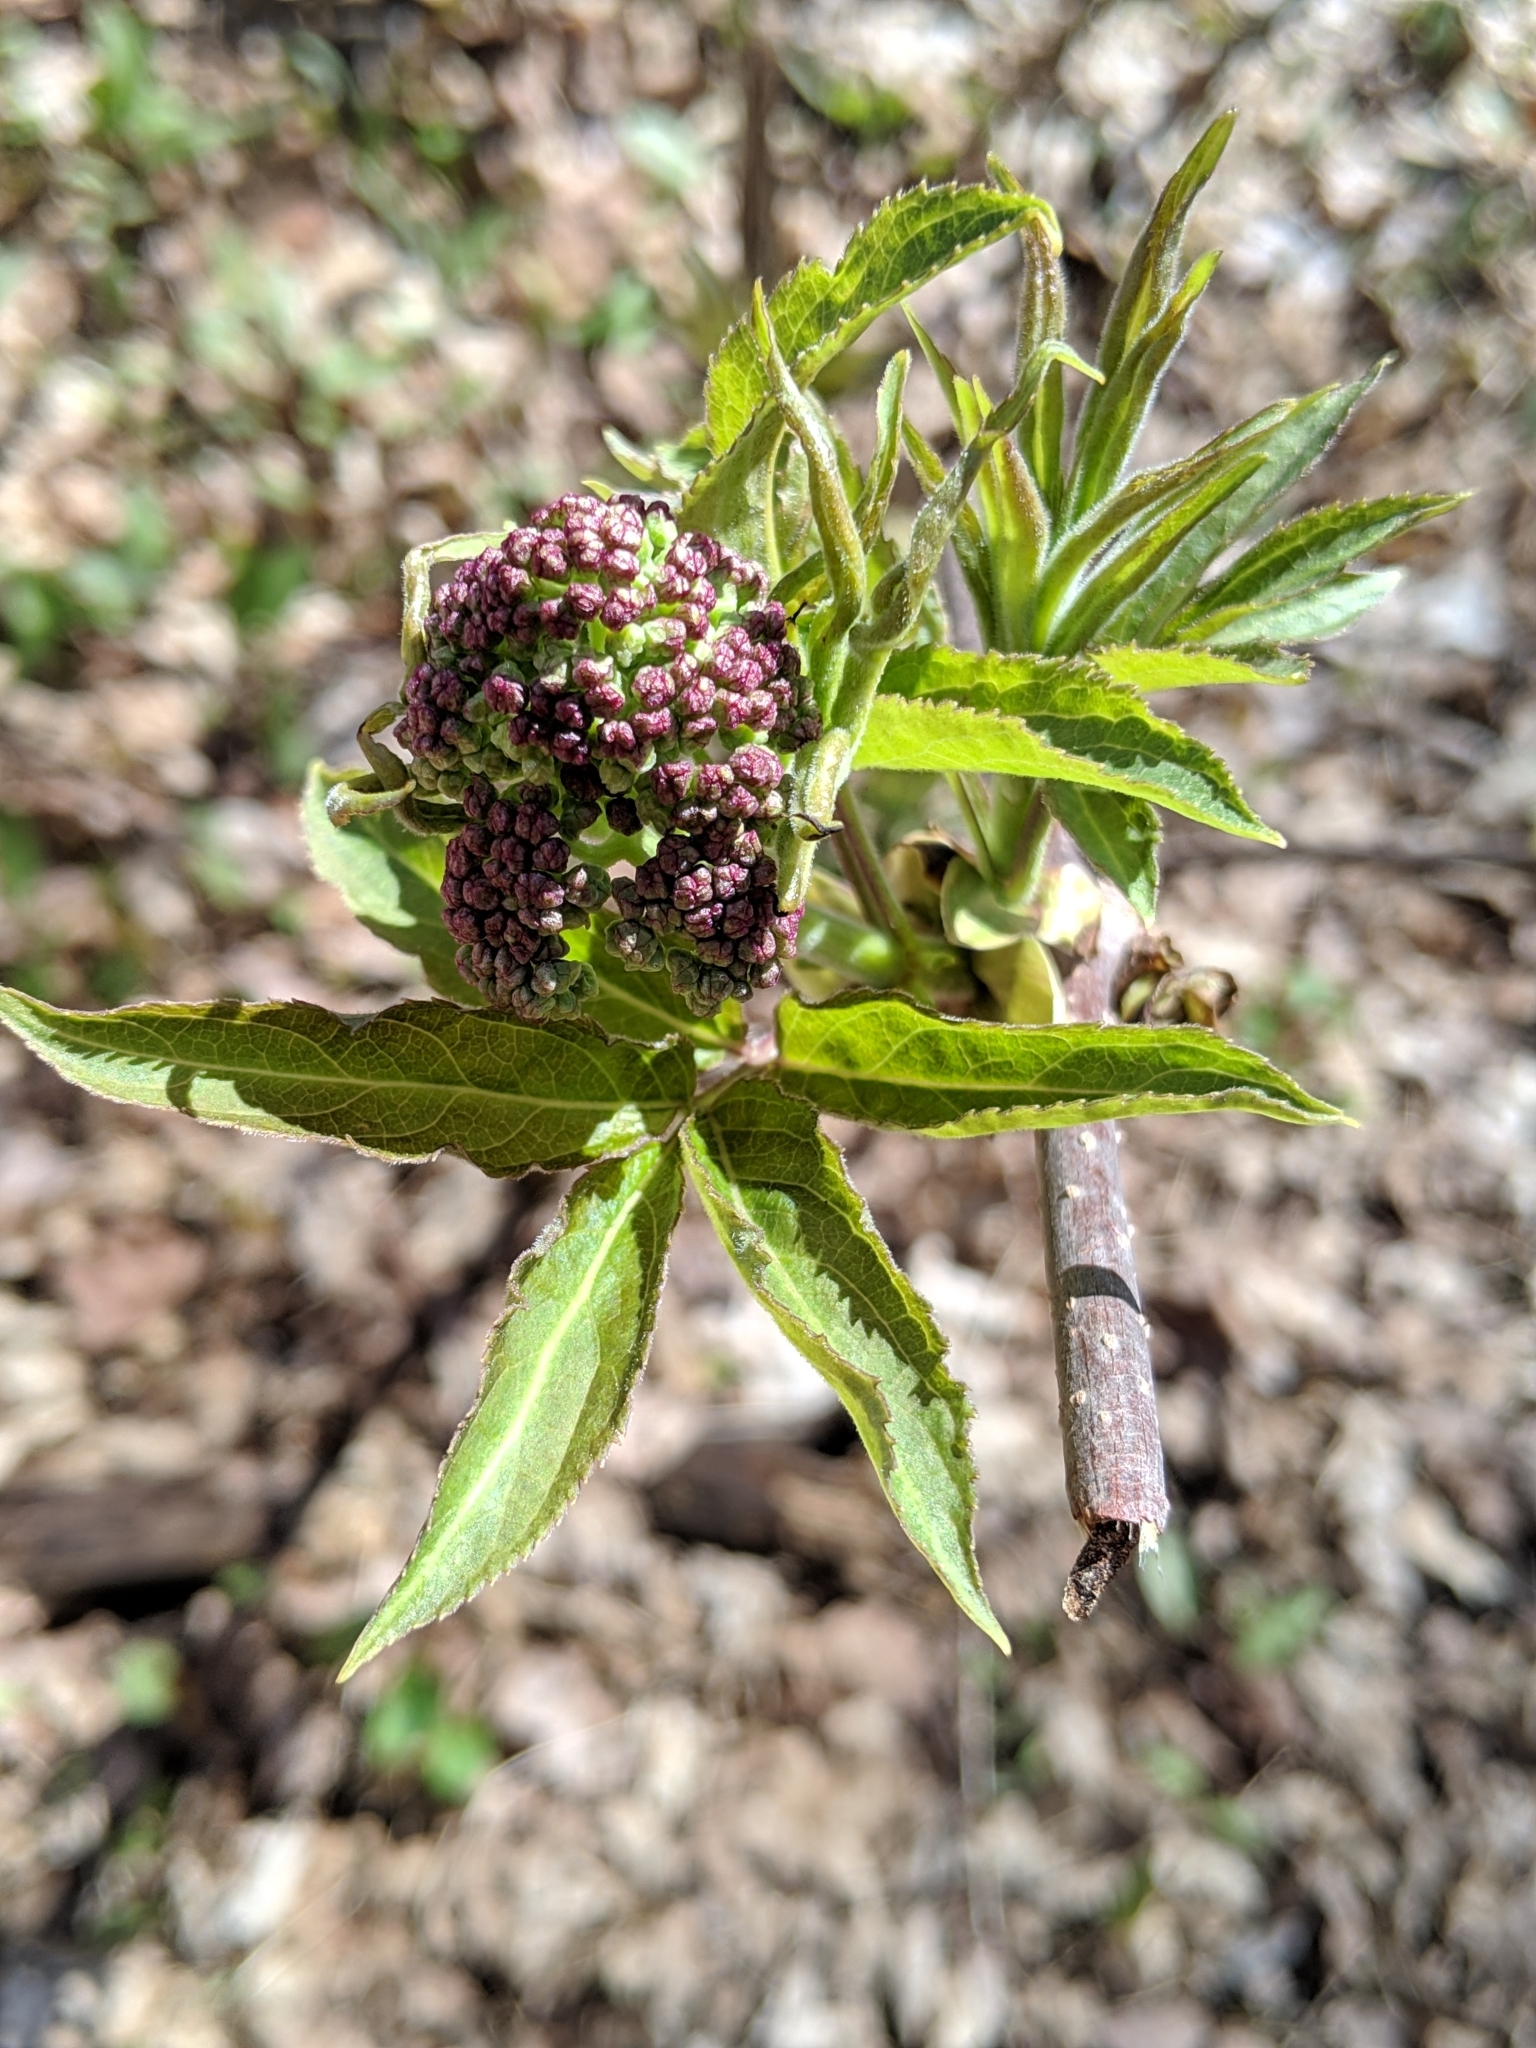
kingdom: Plantae
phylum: Tracheophyta
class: Magnoliopsida
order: Dipsacales
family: Viburnaceae
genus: Sambucus
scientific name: Sambucus racemosa
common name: Red-berried elder
